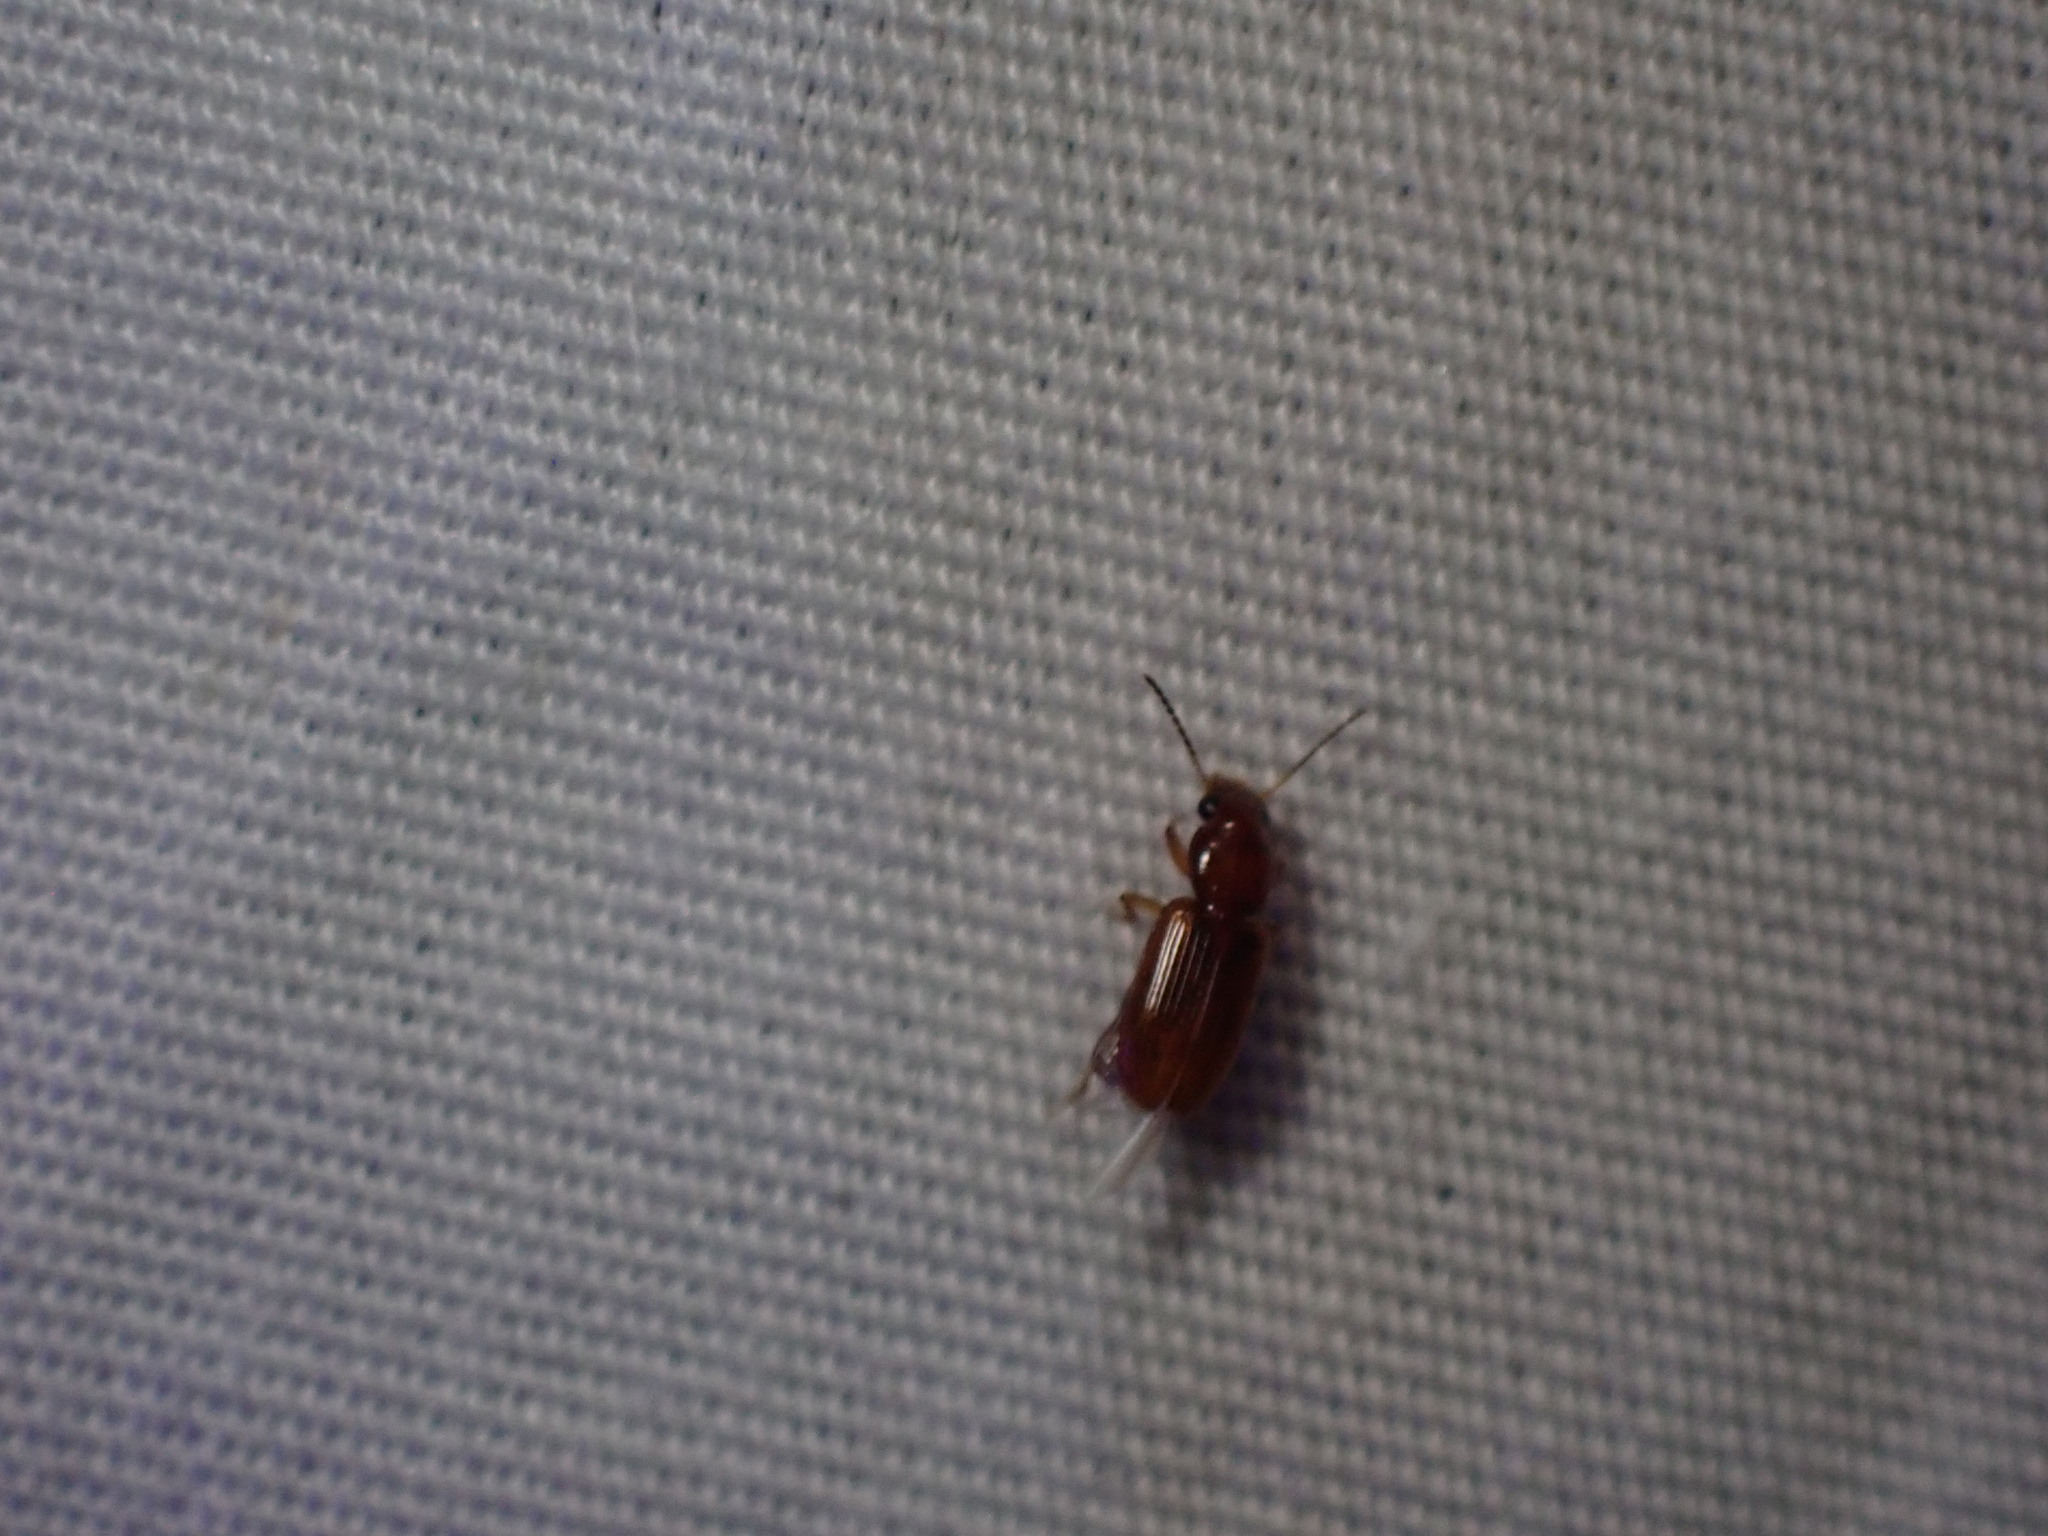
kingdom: Animalia
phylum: Arthropoda
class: Insecta
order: Coleoptera
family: Carabidae
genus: Acupalpus
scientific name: Acupalpus testaceus
